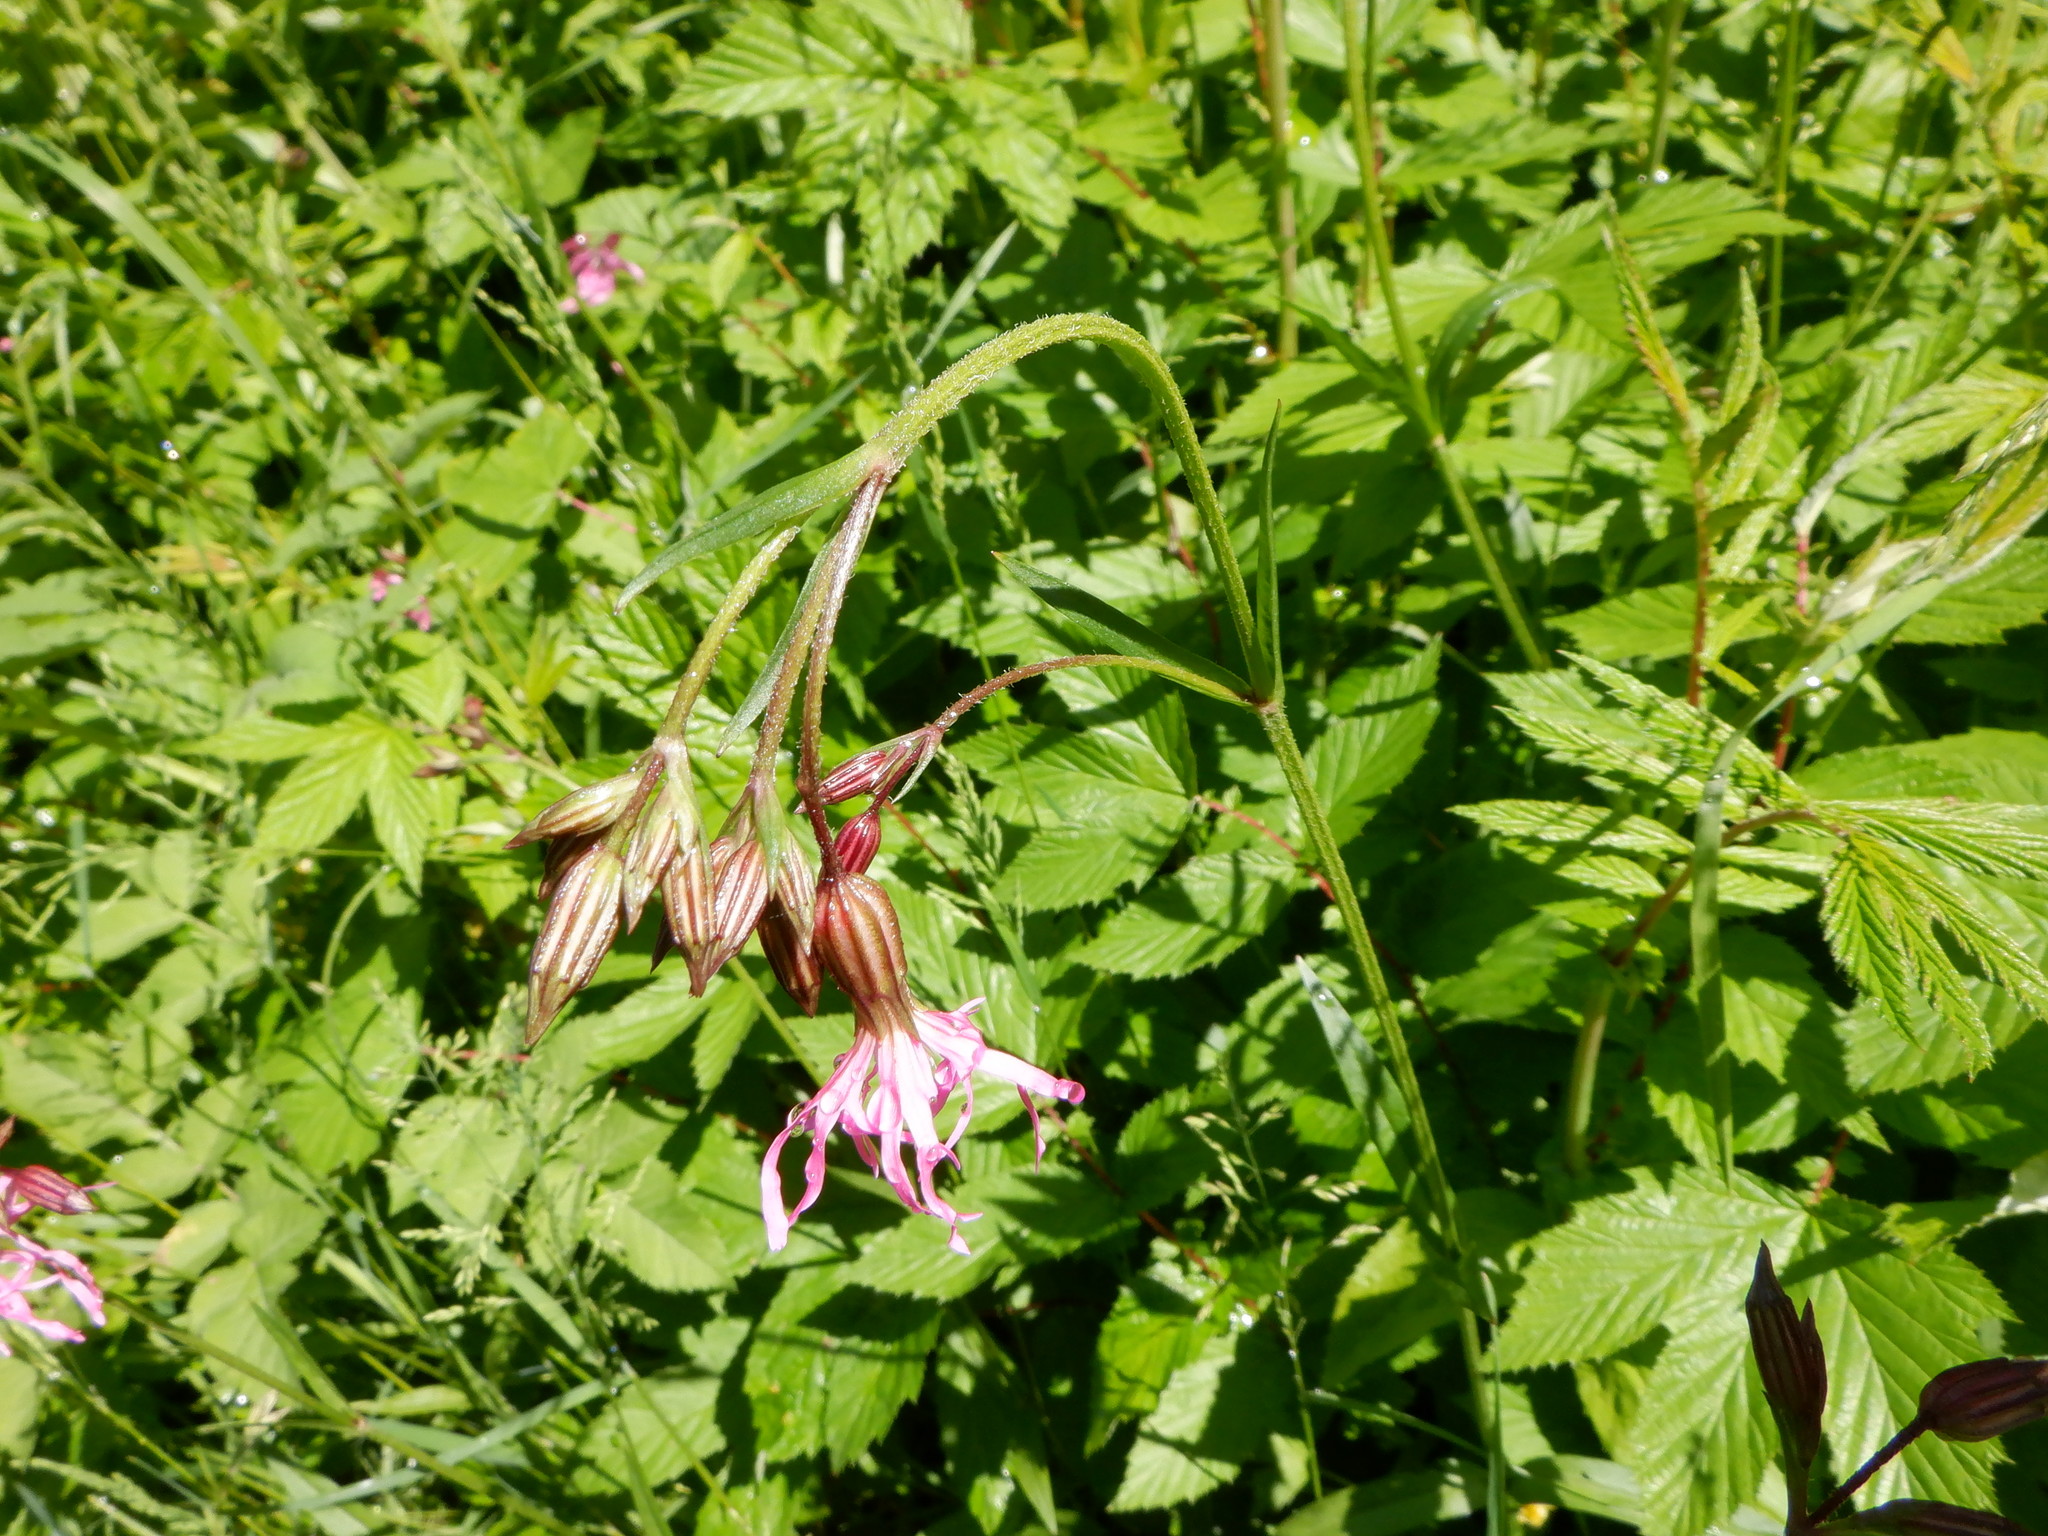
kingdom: Plantae
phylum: Tracheophyta
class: Magnoliopsida
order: Caryophyllales
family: Caryophyllaceae
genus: Silene
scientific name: Silene flos-cuculi
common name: Ragged-robin
